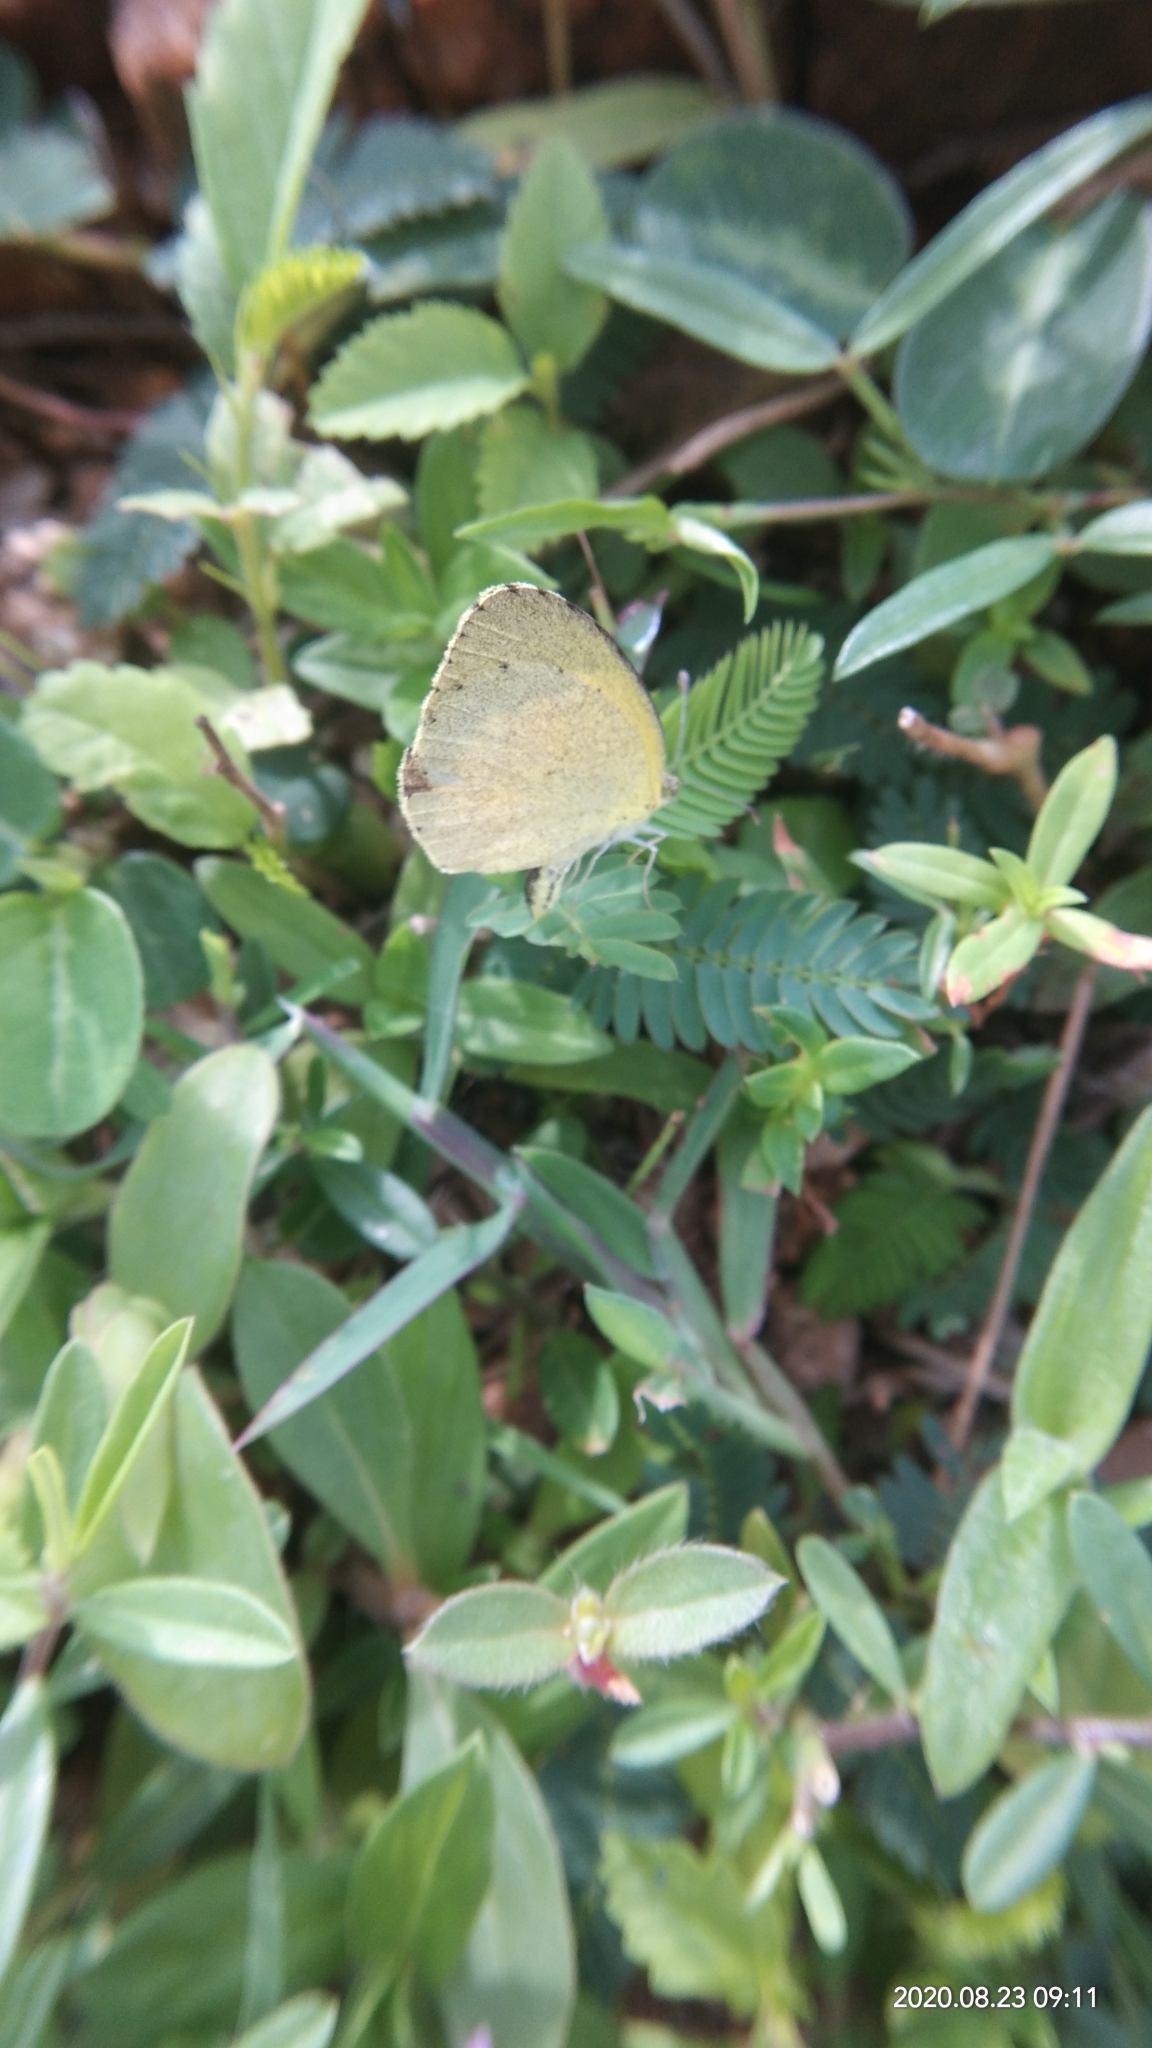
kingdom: Animalia
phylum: Arthropoda
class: Insecta
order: Lepidoptera
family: Pieridae
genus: Eurema
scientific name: Eurema brigitta
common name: Small grass yellow
